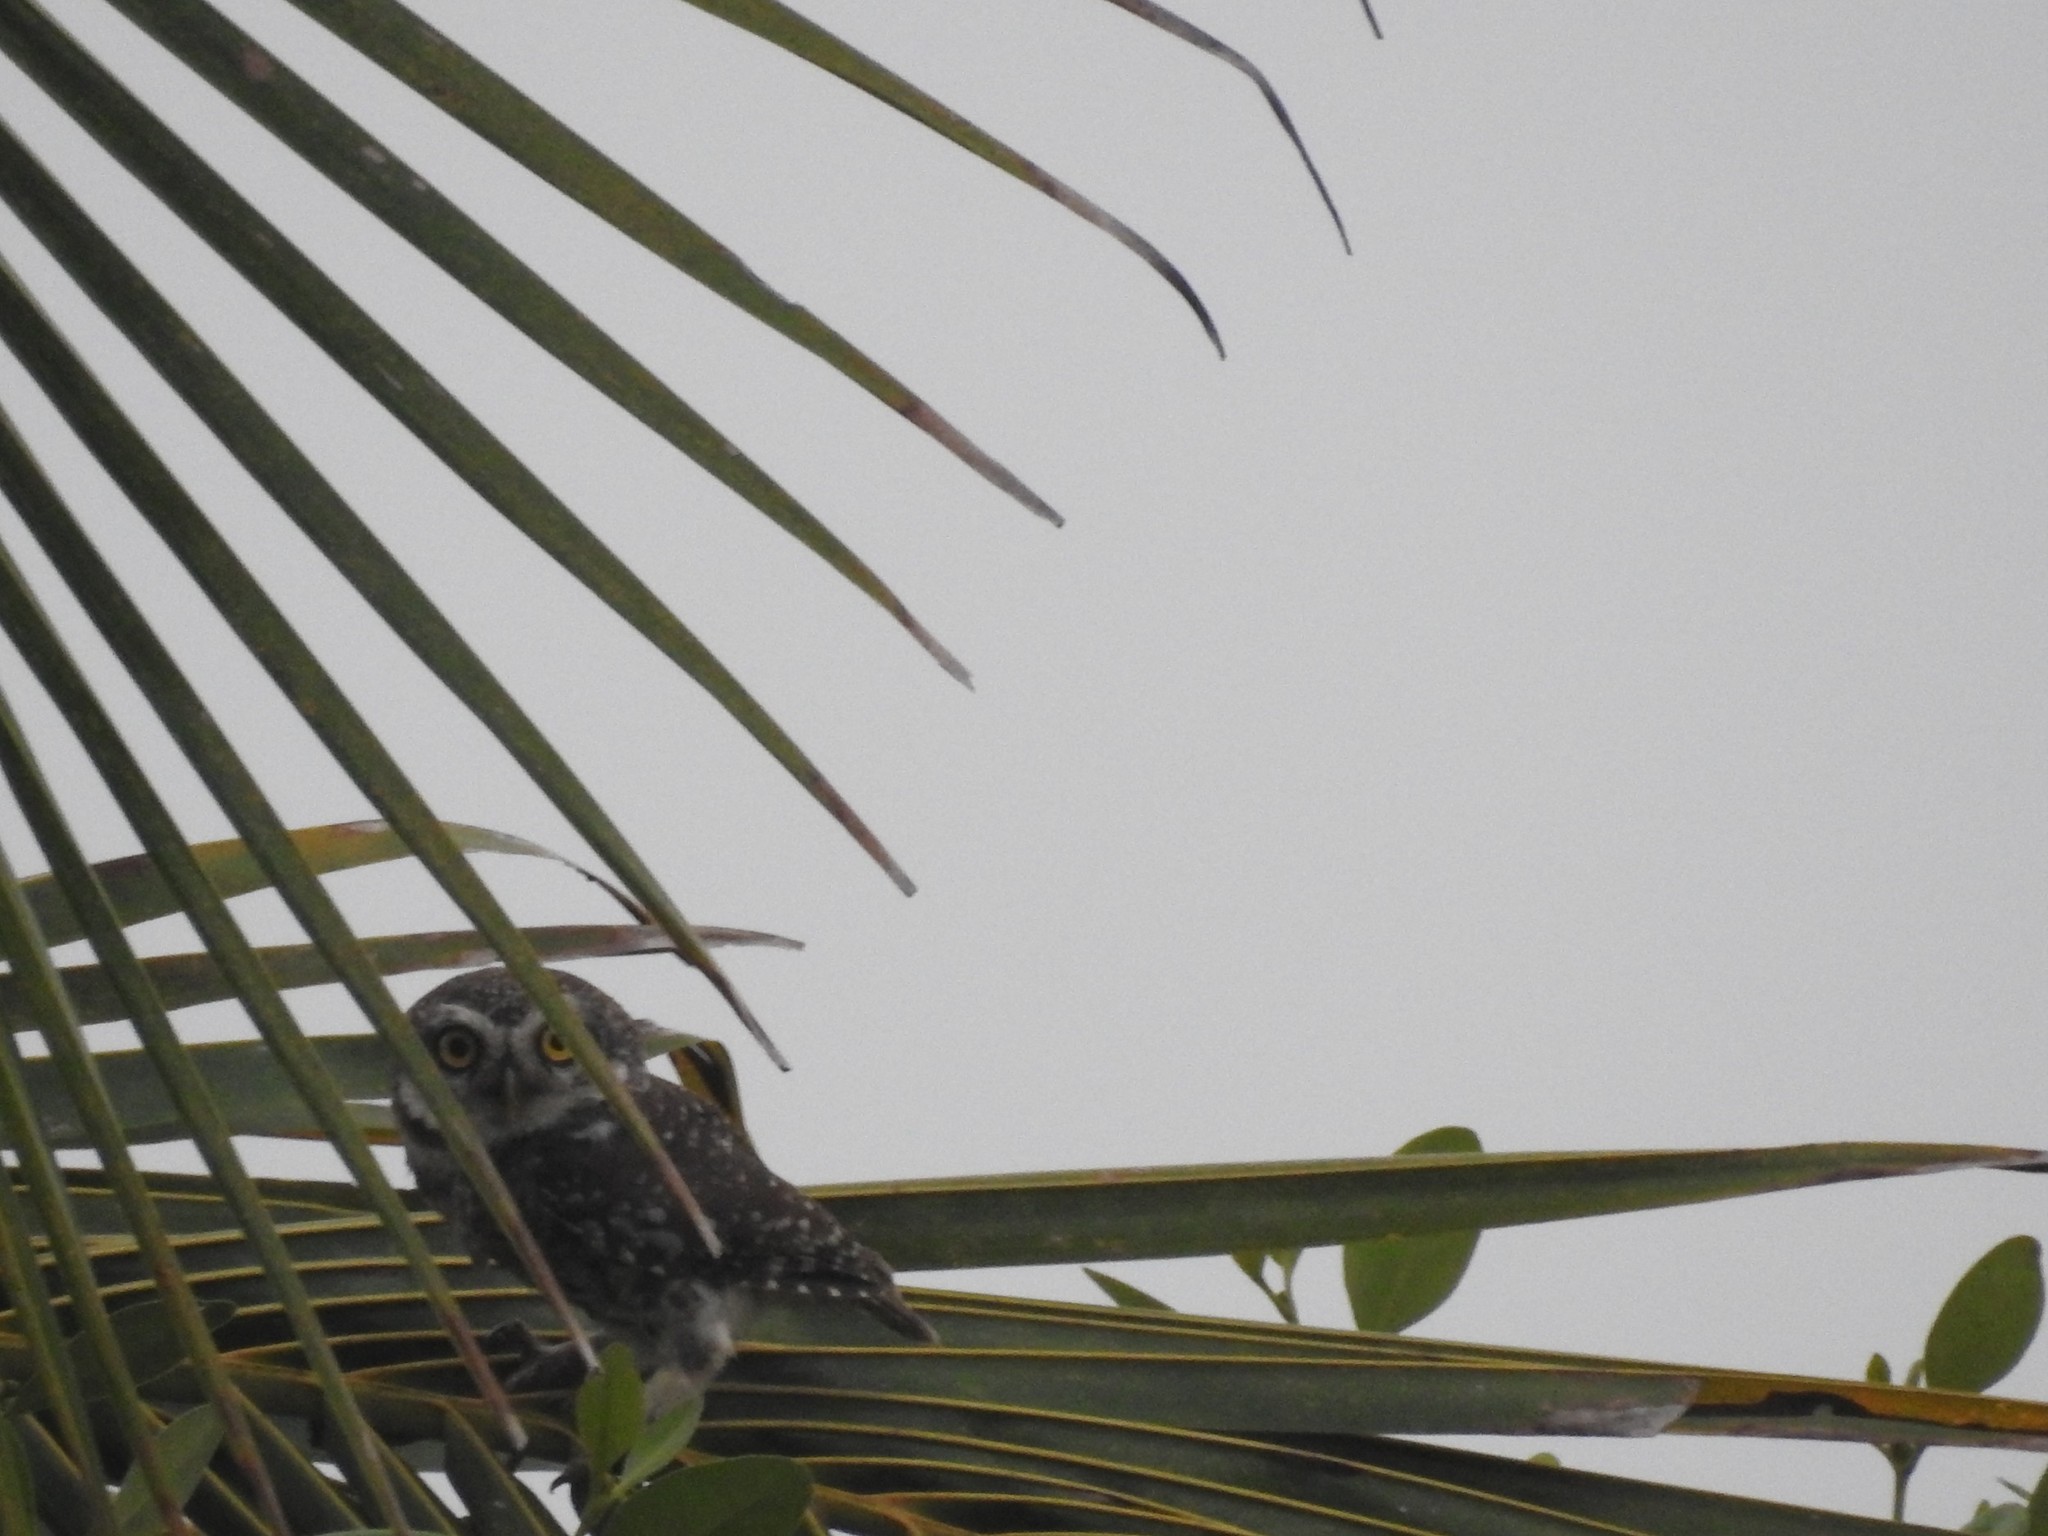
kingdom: Animalia
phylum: Chordata
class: Aves
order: Strigiformes
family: Strigidae
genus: Athene
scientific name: Athene brama
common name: Spotted owlet
